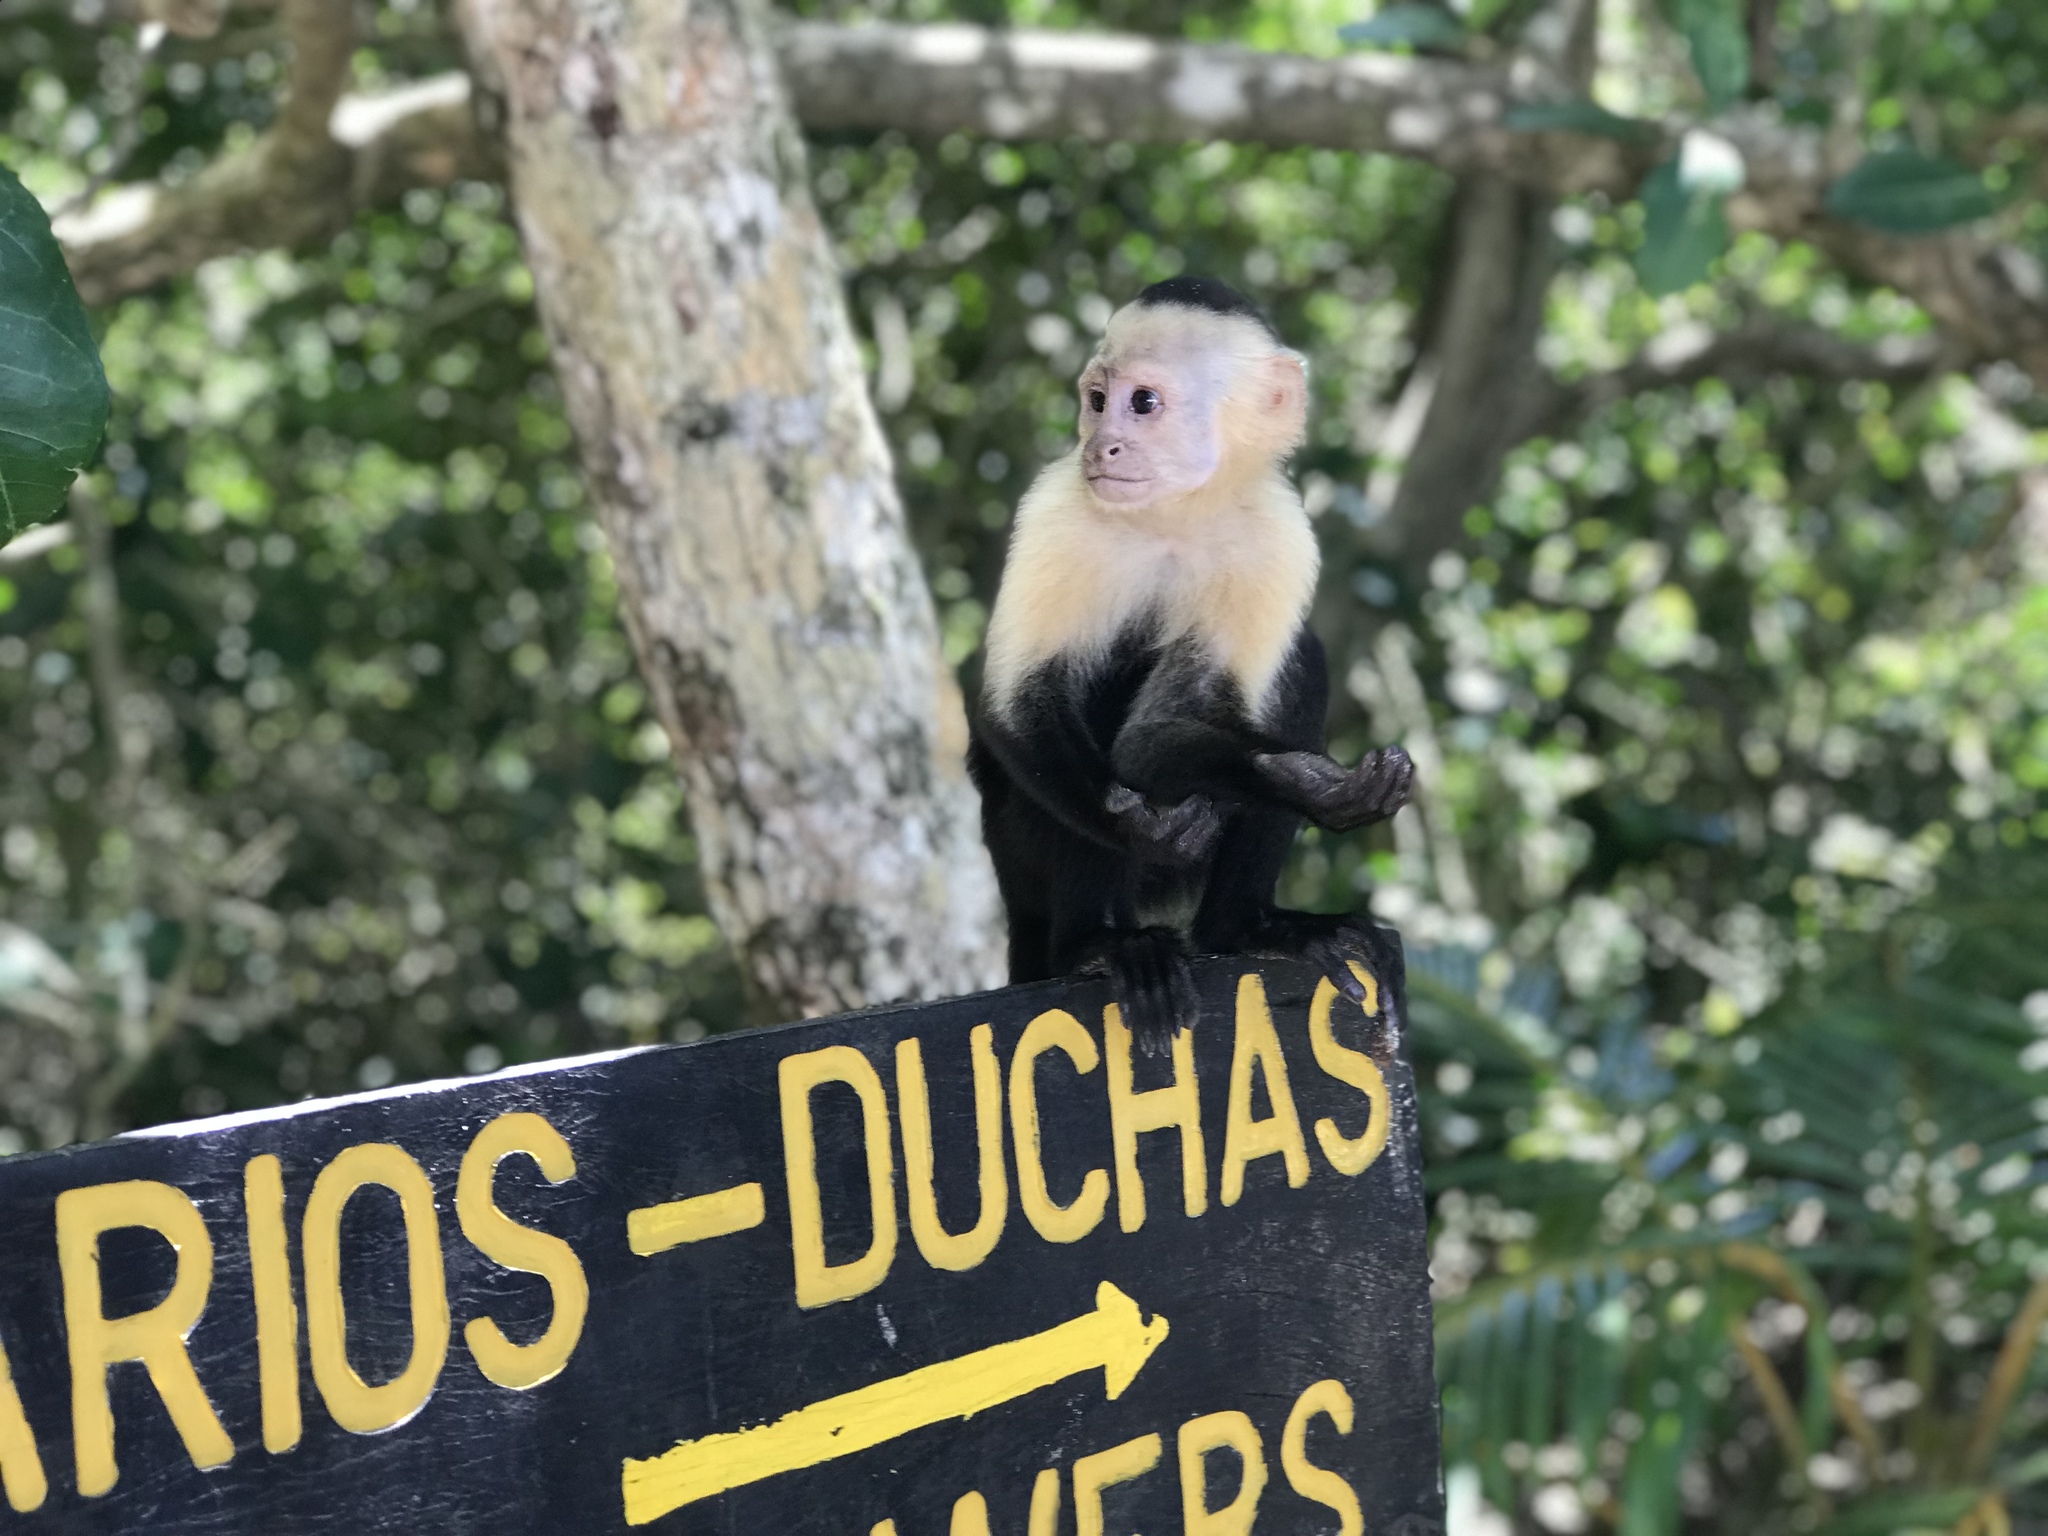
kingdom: Animalia
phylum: Chordata
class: Mammalia
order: Primates
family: Cebidae
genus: Cebus
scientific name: Cebus imitator
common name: Panamanian white-faced capuchin
